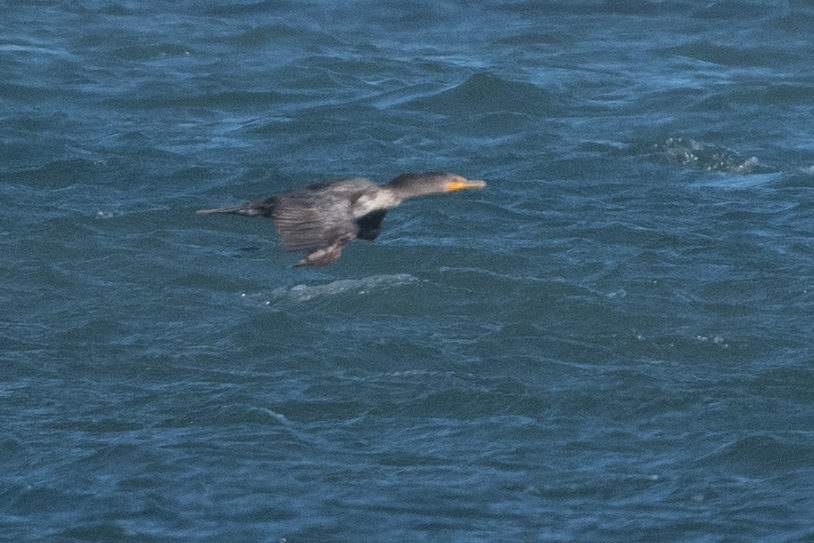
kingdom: Animalia
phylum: Chordata
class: Aves
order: Suliformes
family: Phalacrocoracidae
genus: Phalacrocorax
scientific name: Phalacrocorax auritus
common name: Double-crested cormorant
